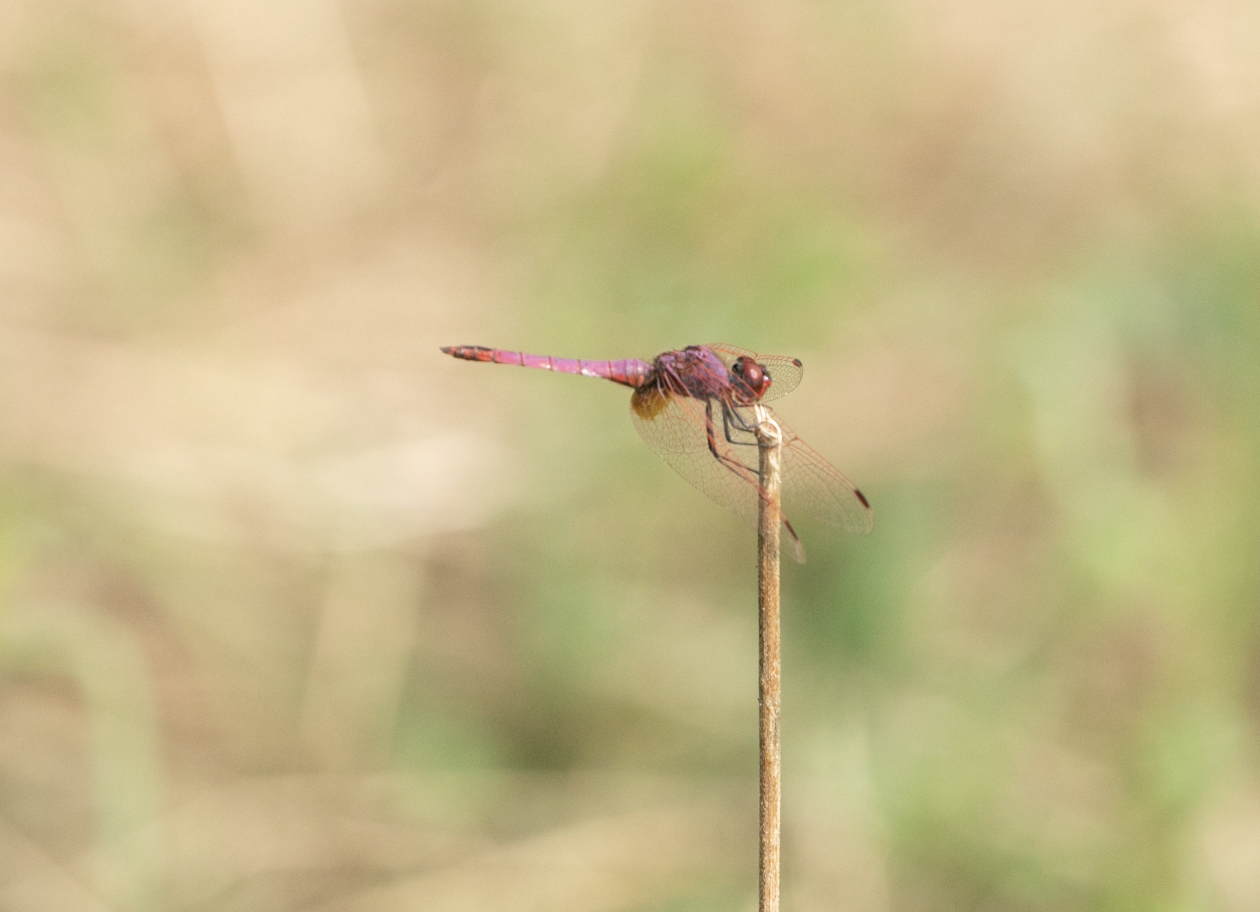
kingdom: Animalia
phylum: Arthropoda
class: Insecta
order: Odonata
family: Libellulidae
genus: Trithemis
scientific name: Trithemis annulata
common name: Violet dropwing
